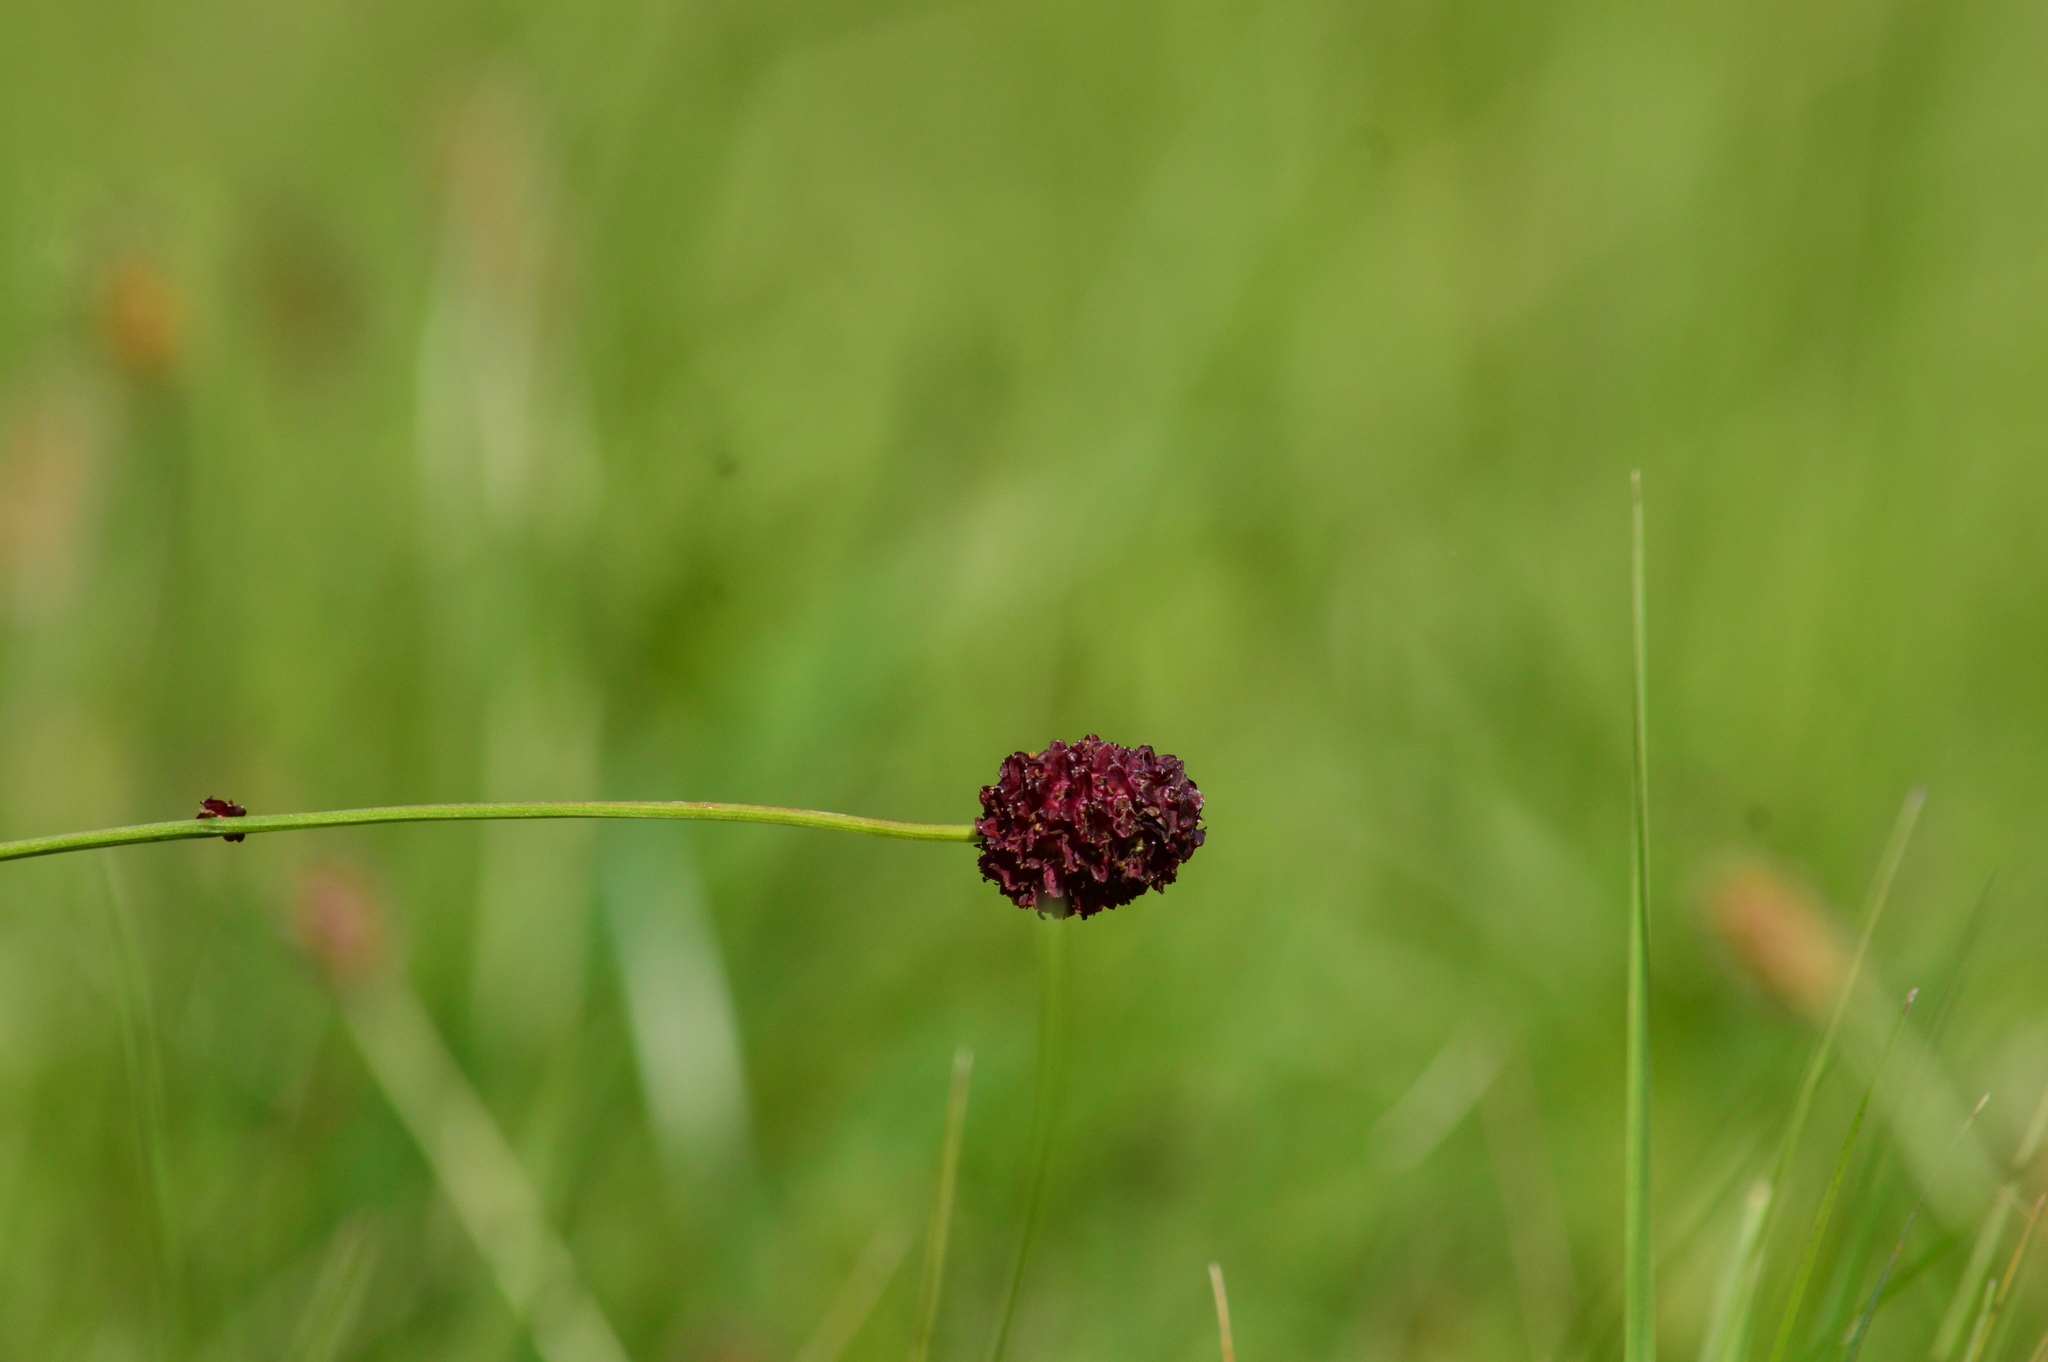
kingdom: Plantae
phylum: Tracheophyta
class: Magnoliopsida
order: Rosales
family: Rosaceae
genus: Sanguisorba
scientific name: Sanguisorba officinalis
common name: Great burnet
